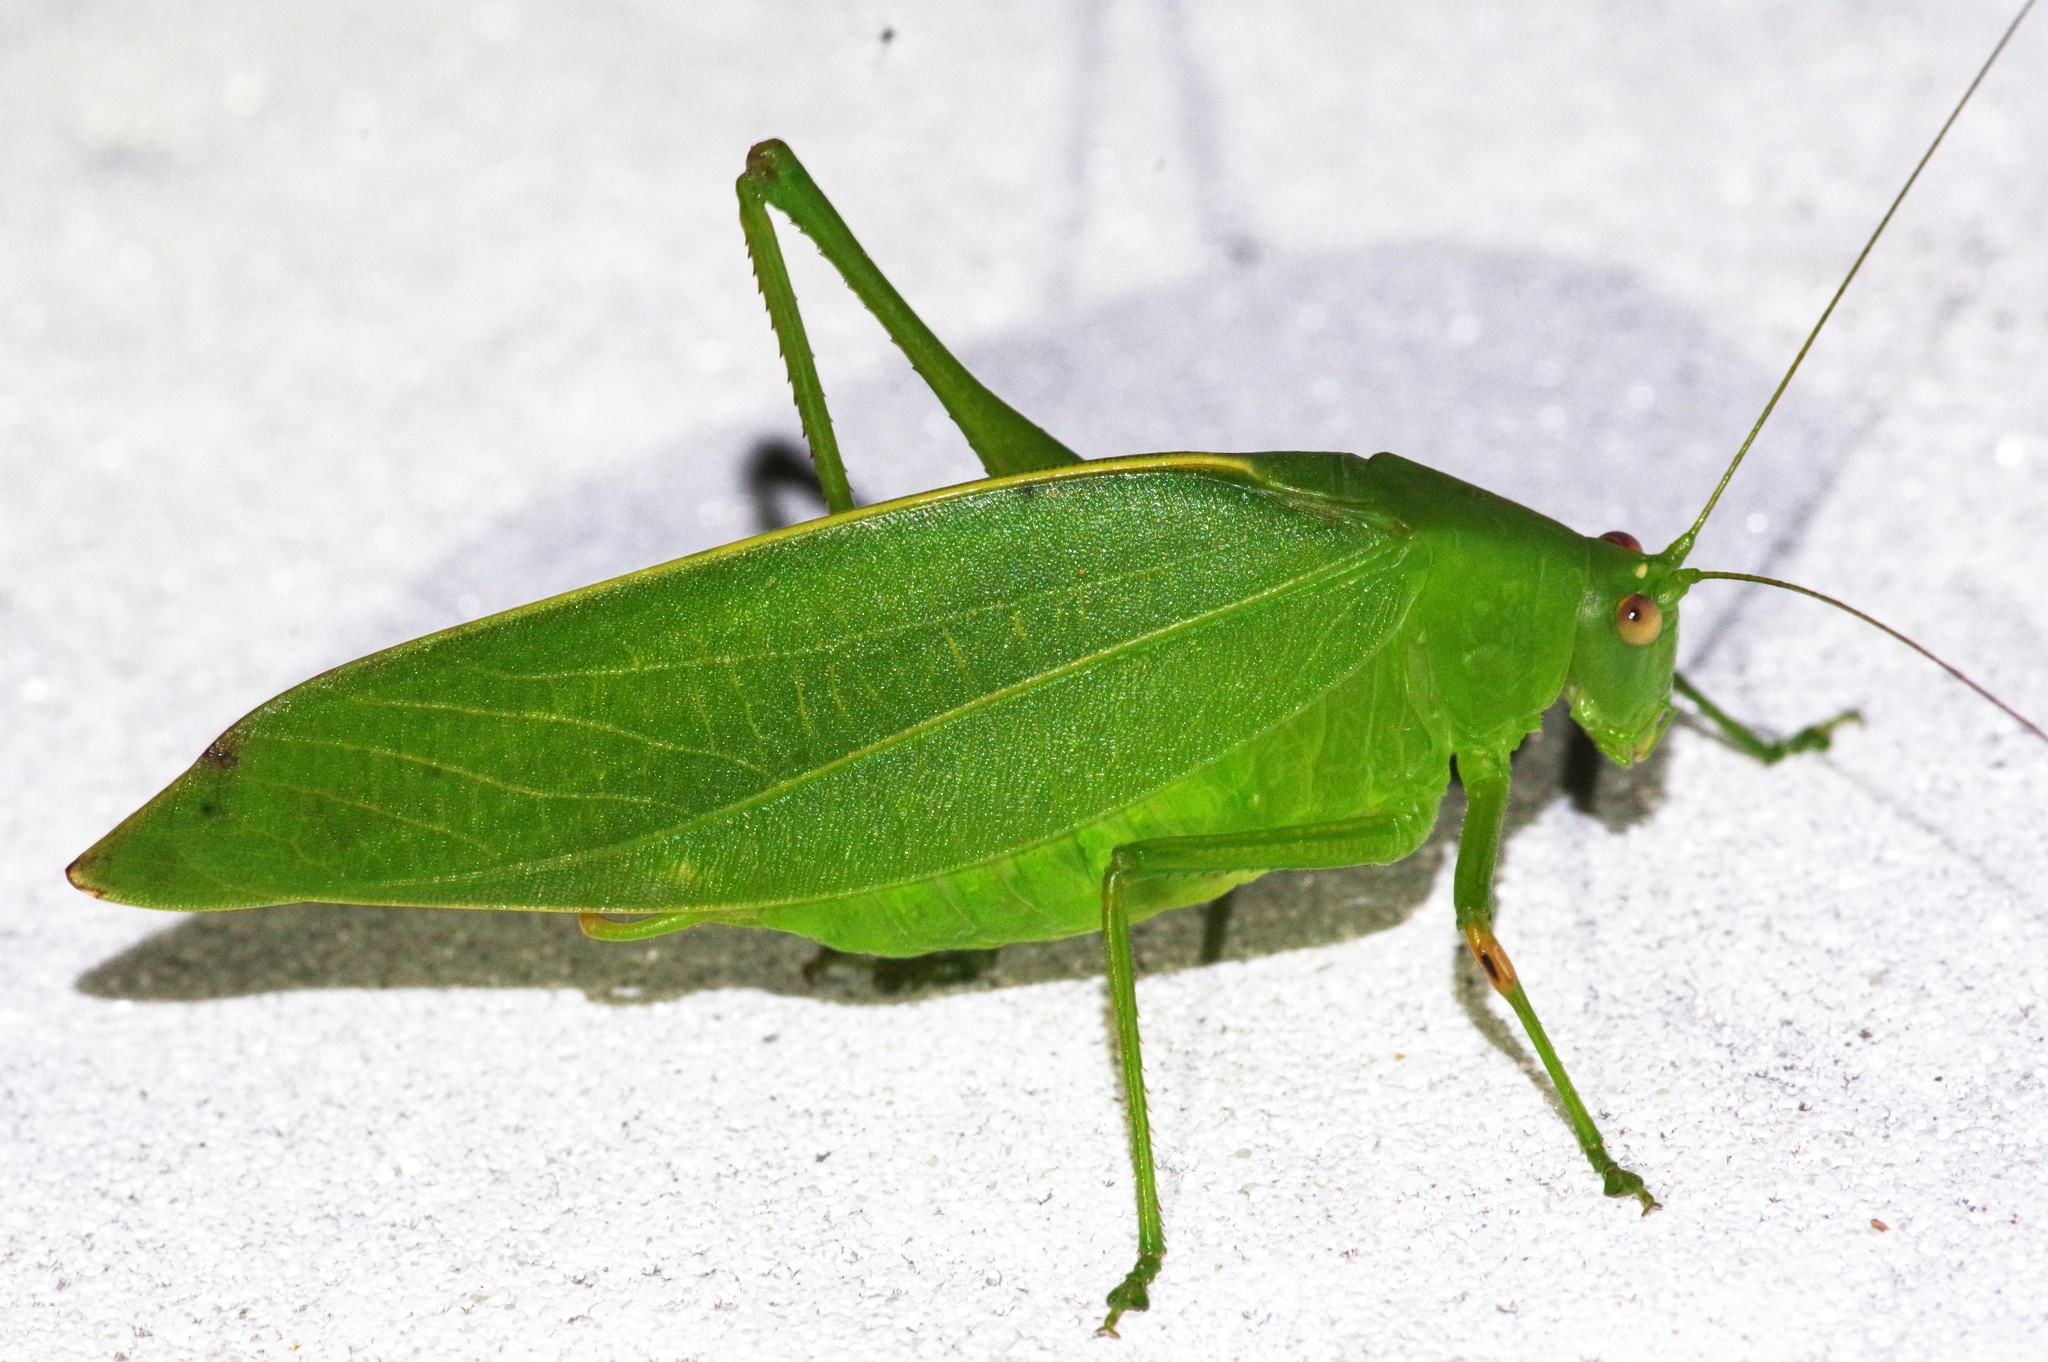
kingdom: Animalia
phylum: Arthropoda
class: Insecta
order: Orthoptera
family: Tettigoniidae
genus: Phaulula
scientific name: Phaulula daitoensis
